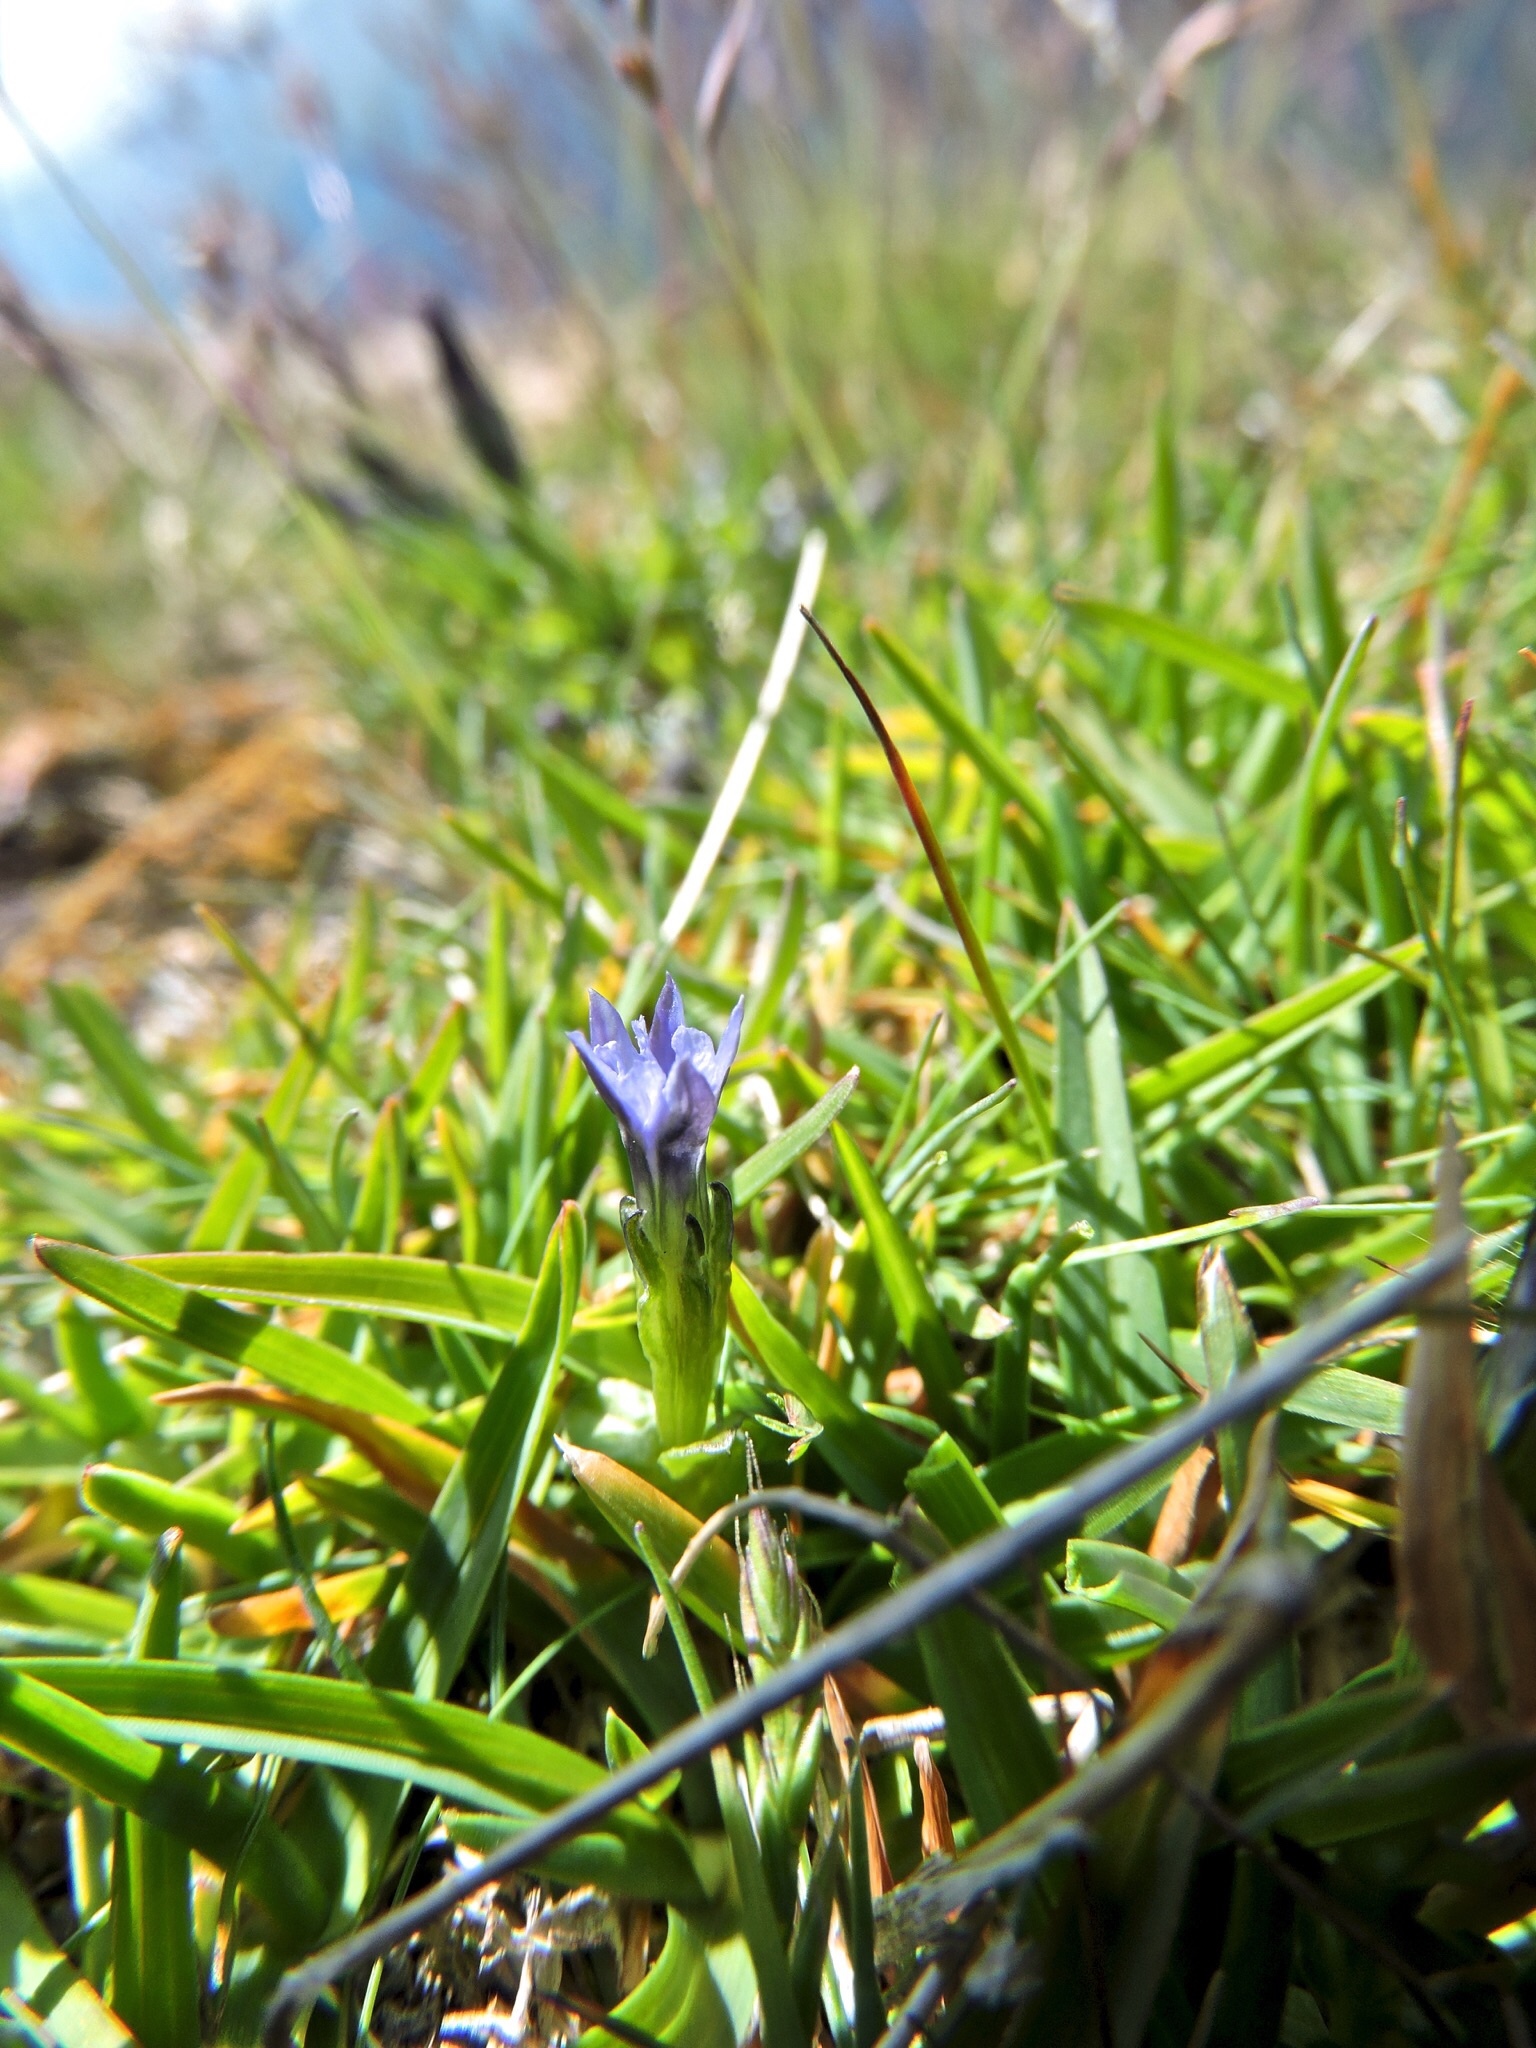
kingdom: Plantae
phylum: Tracheophyta
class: Magnoliopsida
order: Gentianales
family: Gentianaceae
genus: Gentiana
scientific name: Gentiana prostrata
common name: Moss gentian
